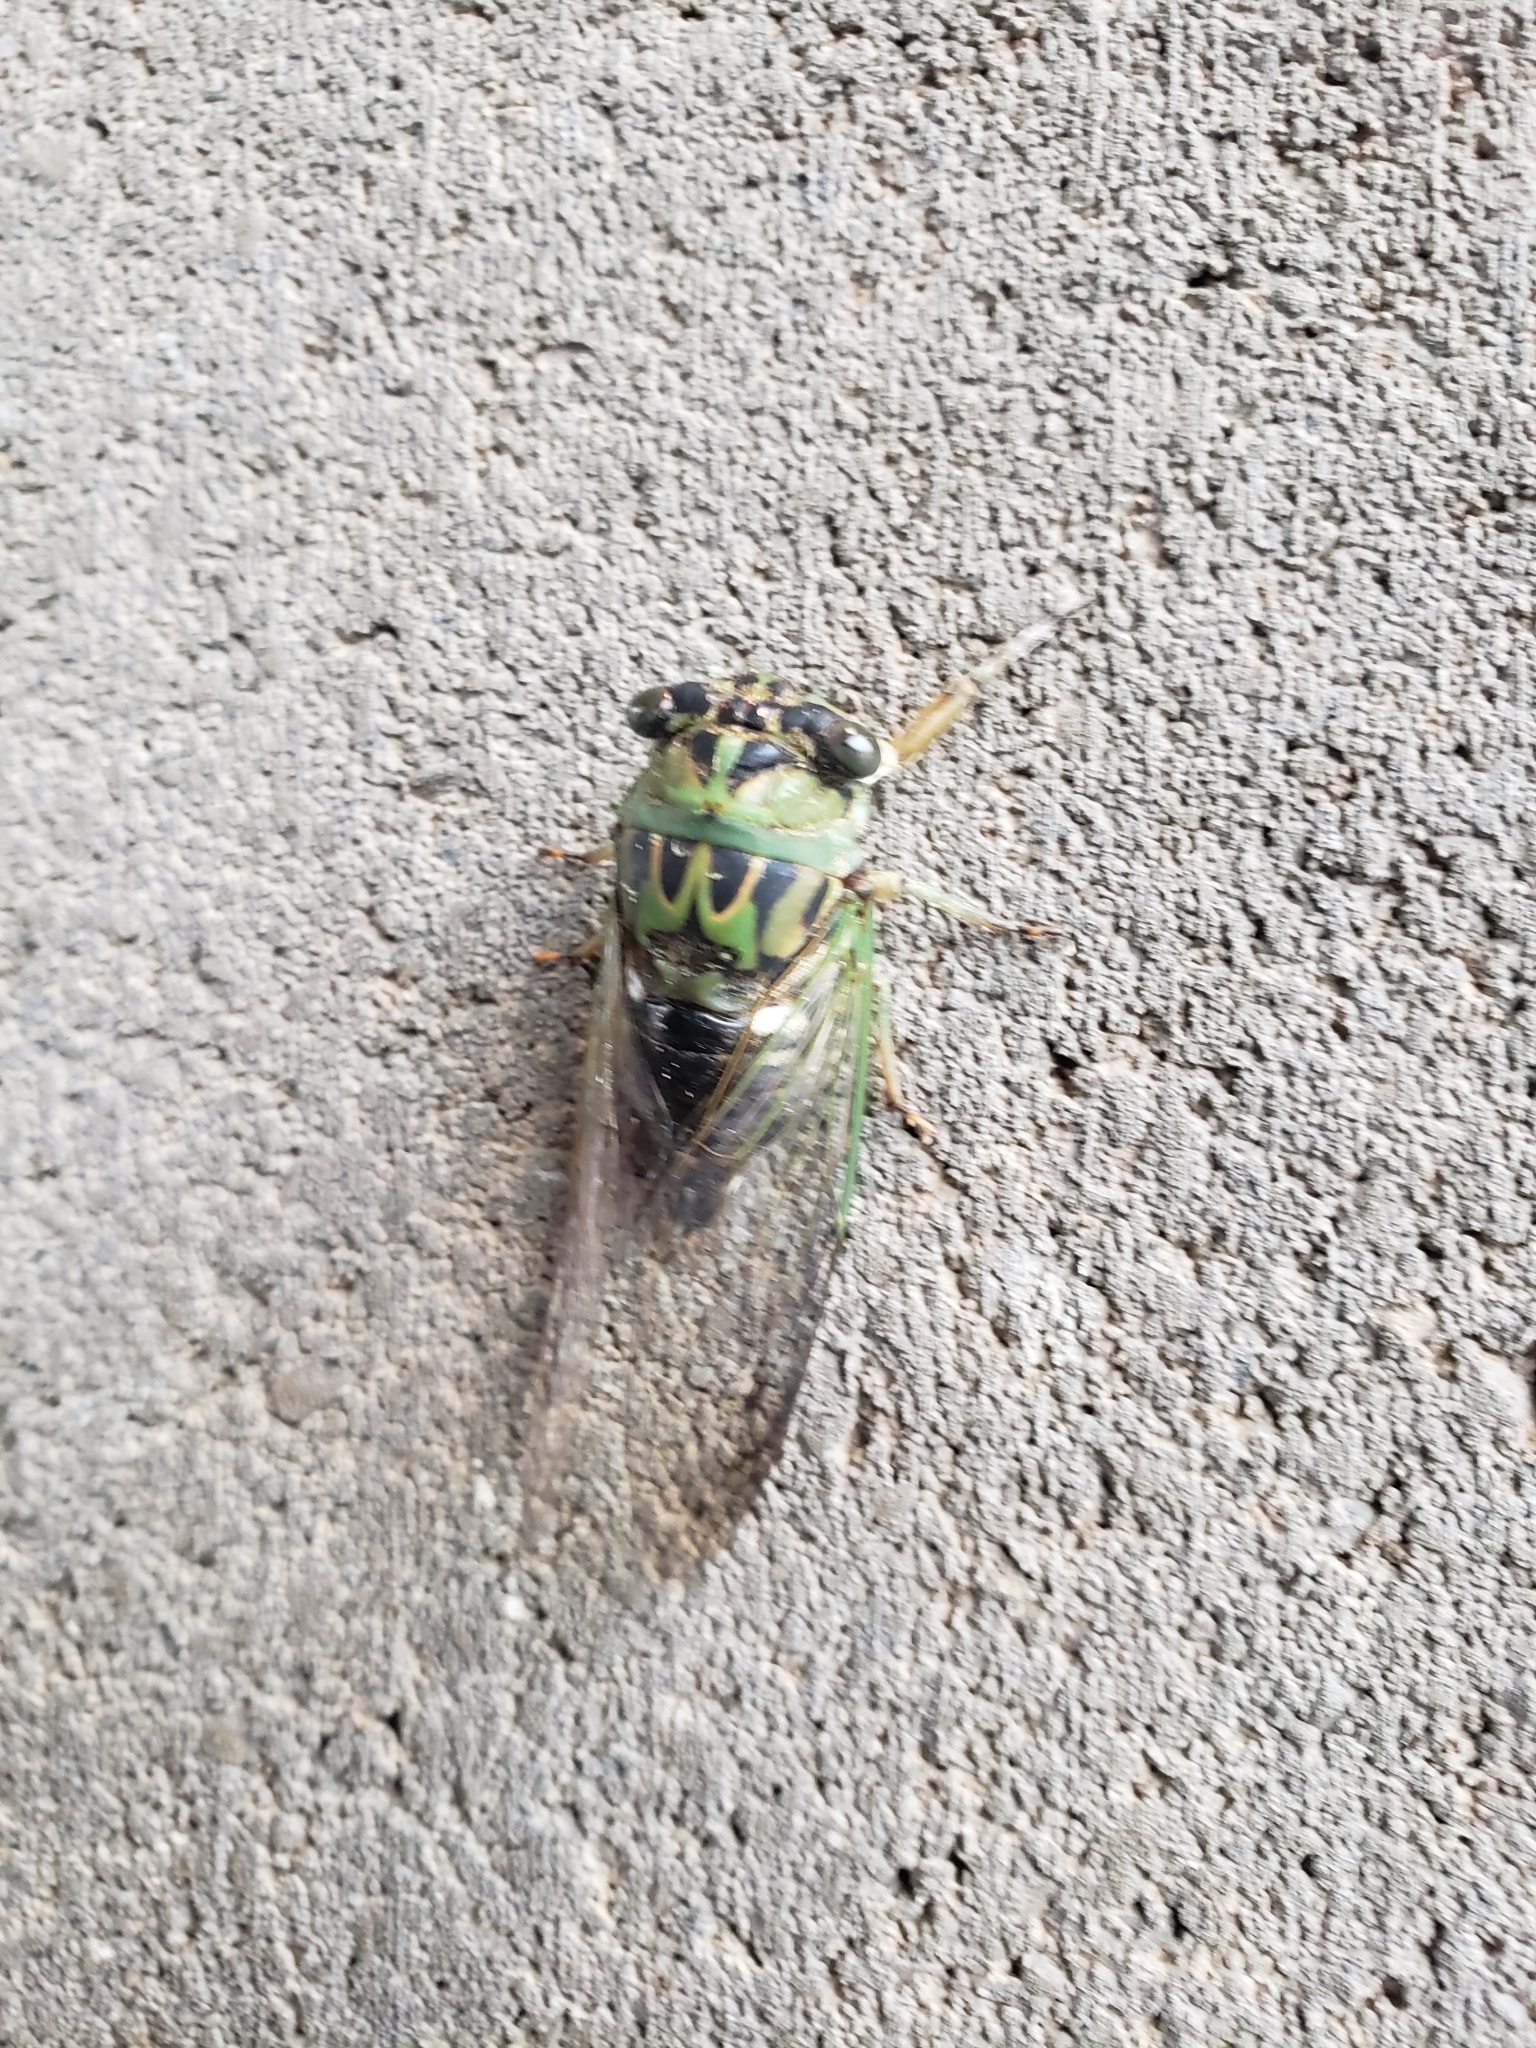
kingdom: Animalia
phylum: Arthropoda
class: Insecta
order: Hemiptera
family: Cicadidae
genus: Neotibicen
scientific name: Neotibicen pruinosus
